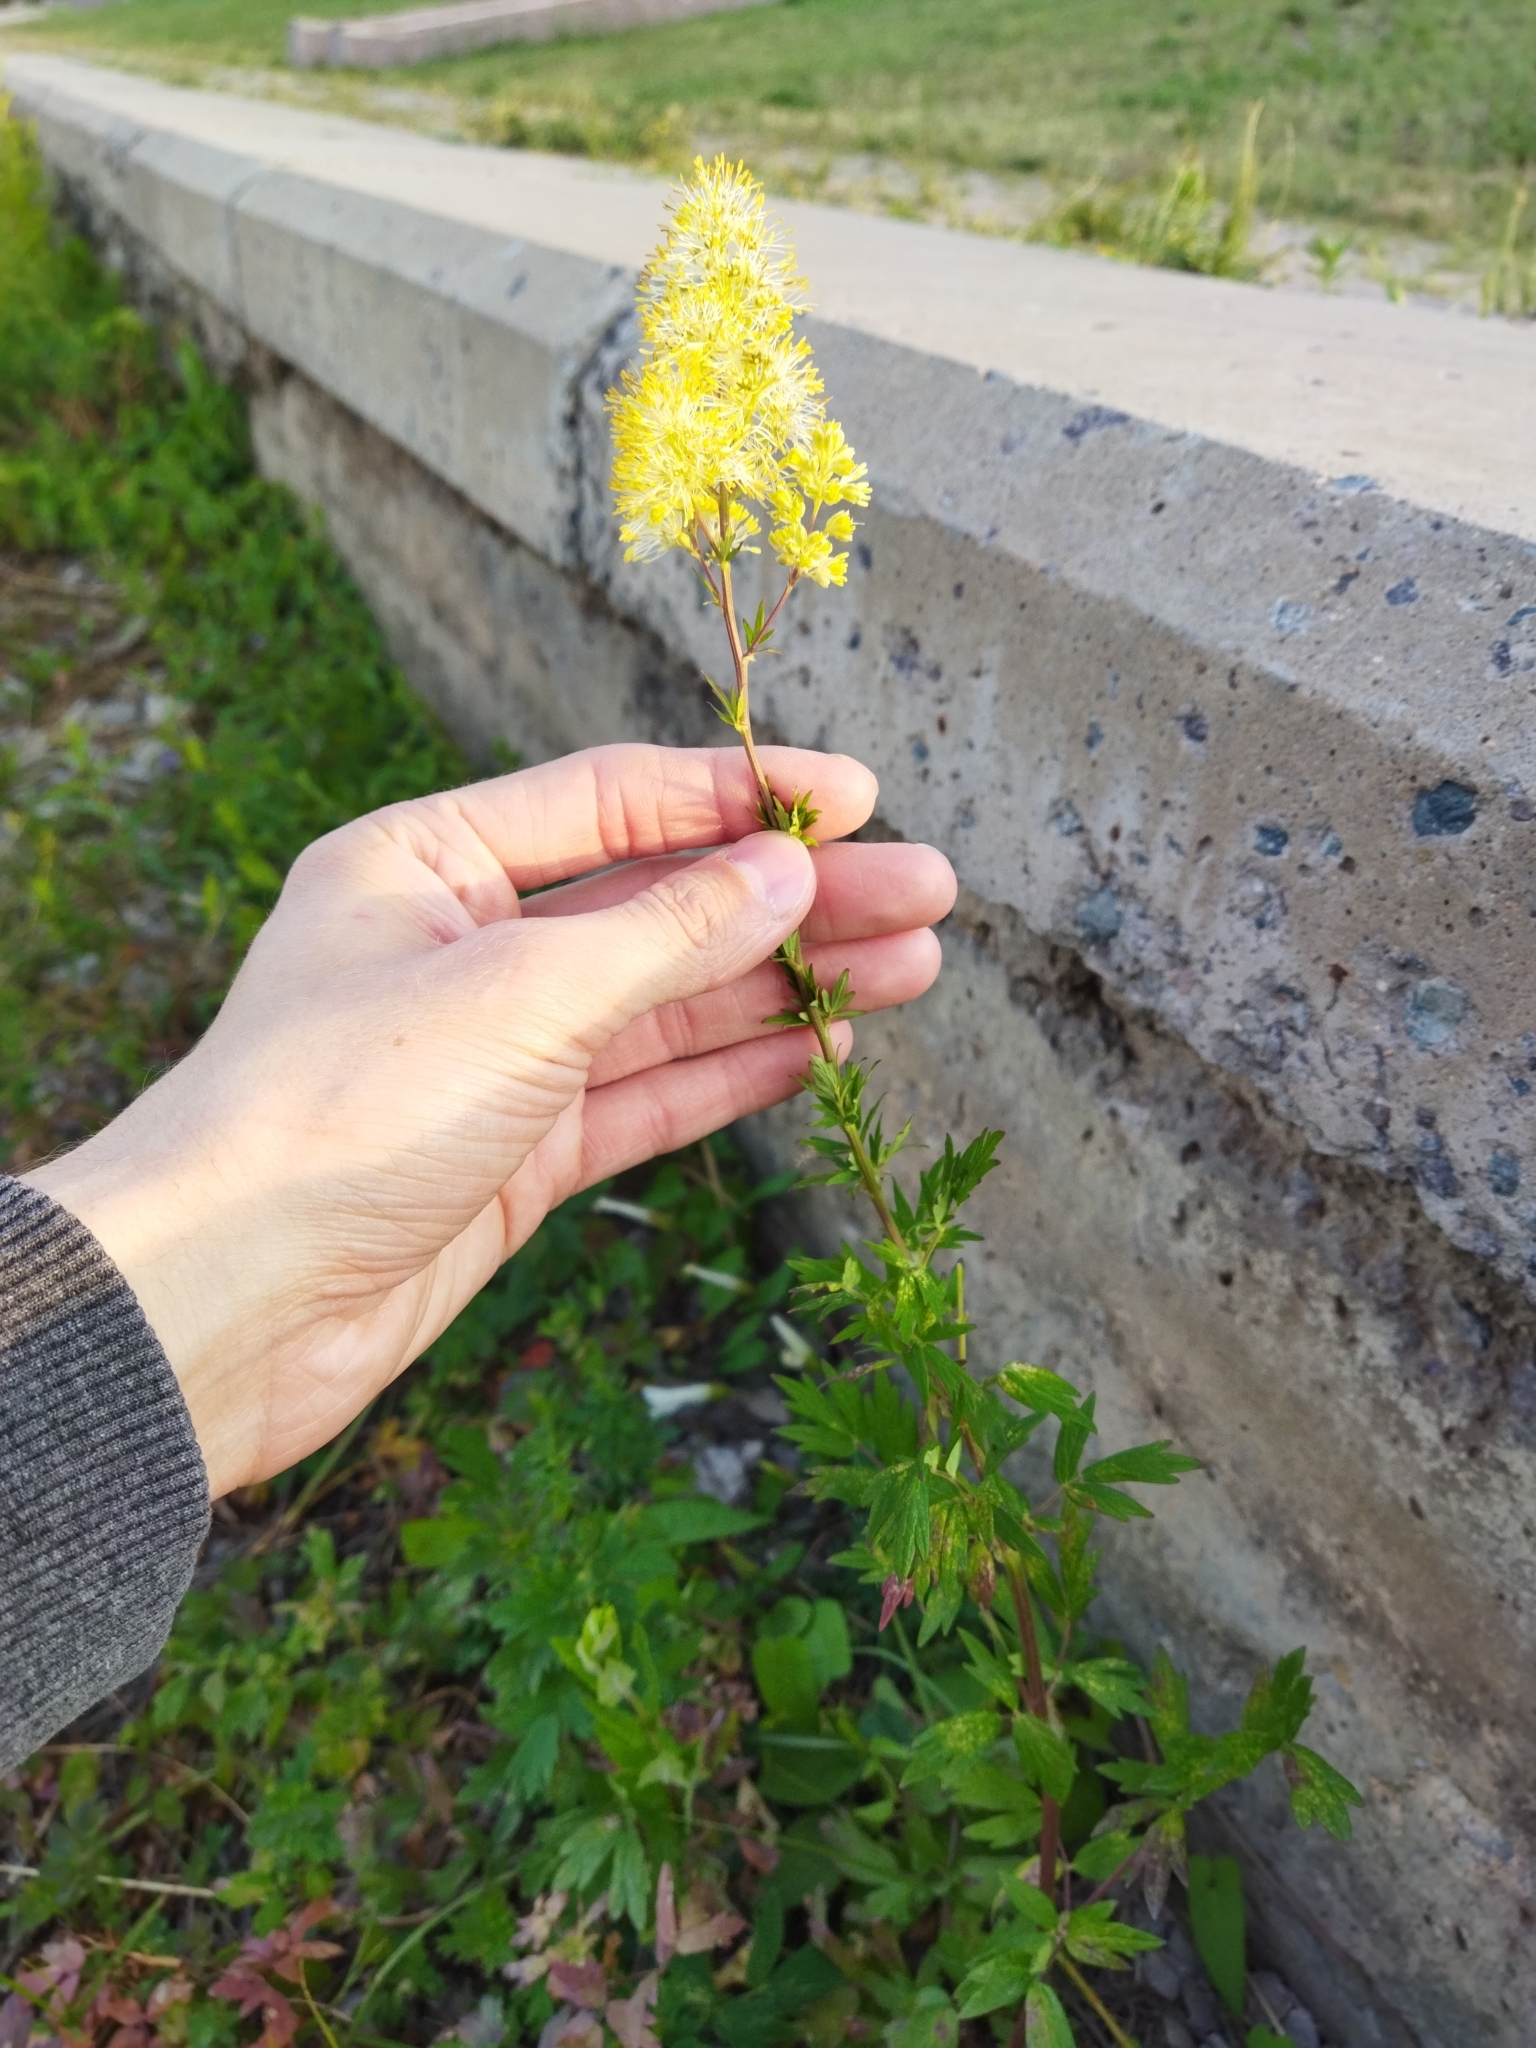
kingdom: Plantae
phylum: Tracheophyta
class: Magnoliopsida
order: Ranunculales
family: Ranunculaceae
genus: Thalictrum
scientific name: Thalictrum flavum
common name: Common meadow-rue
